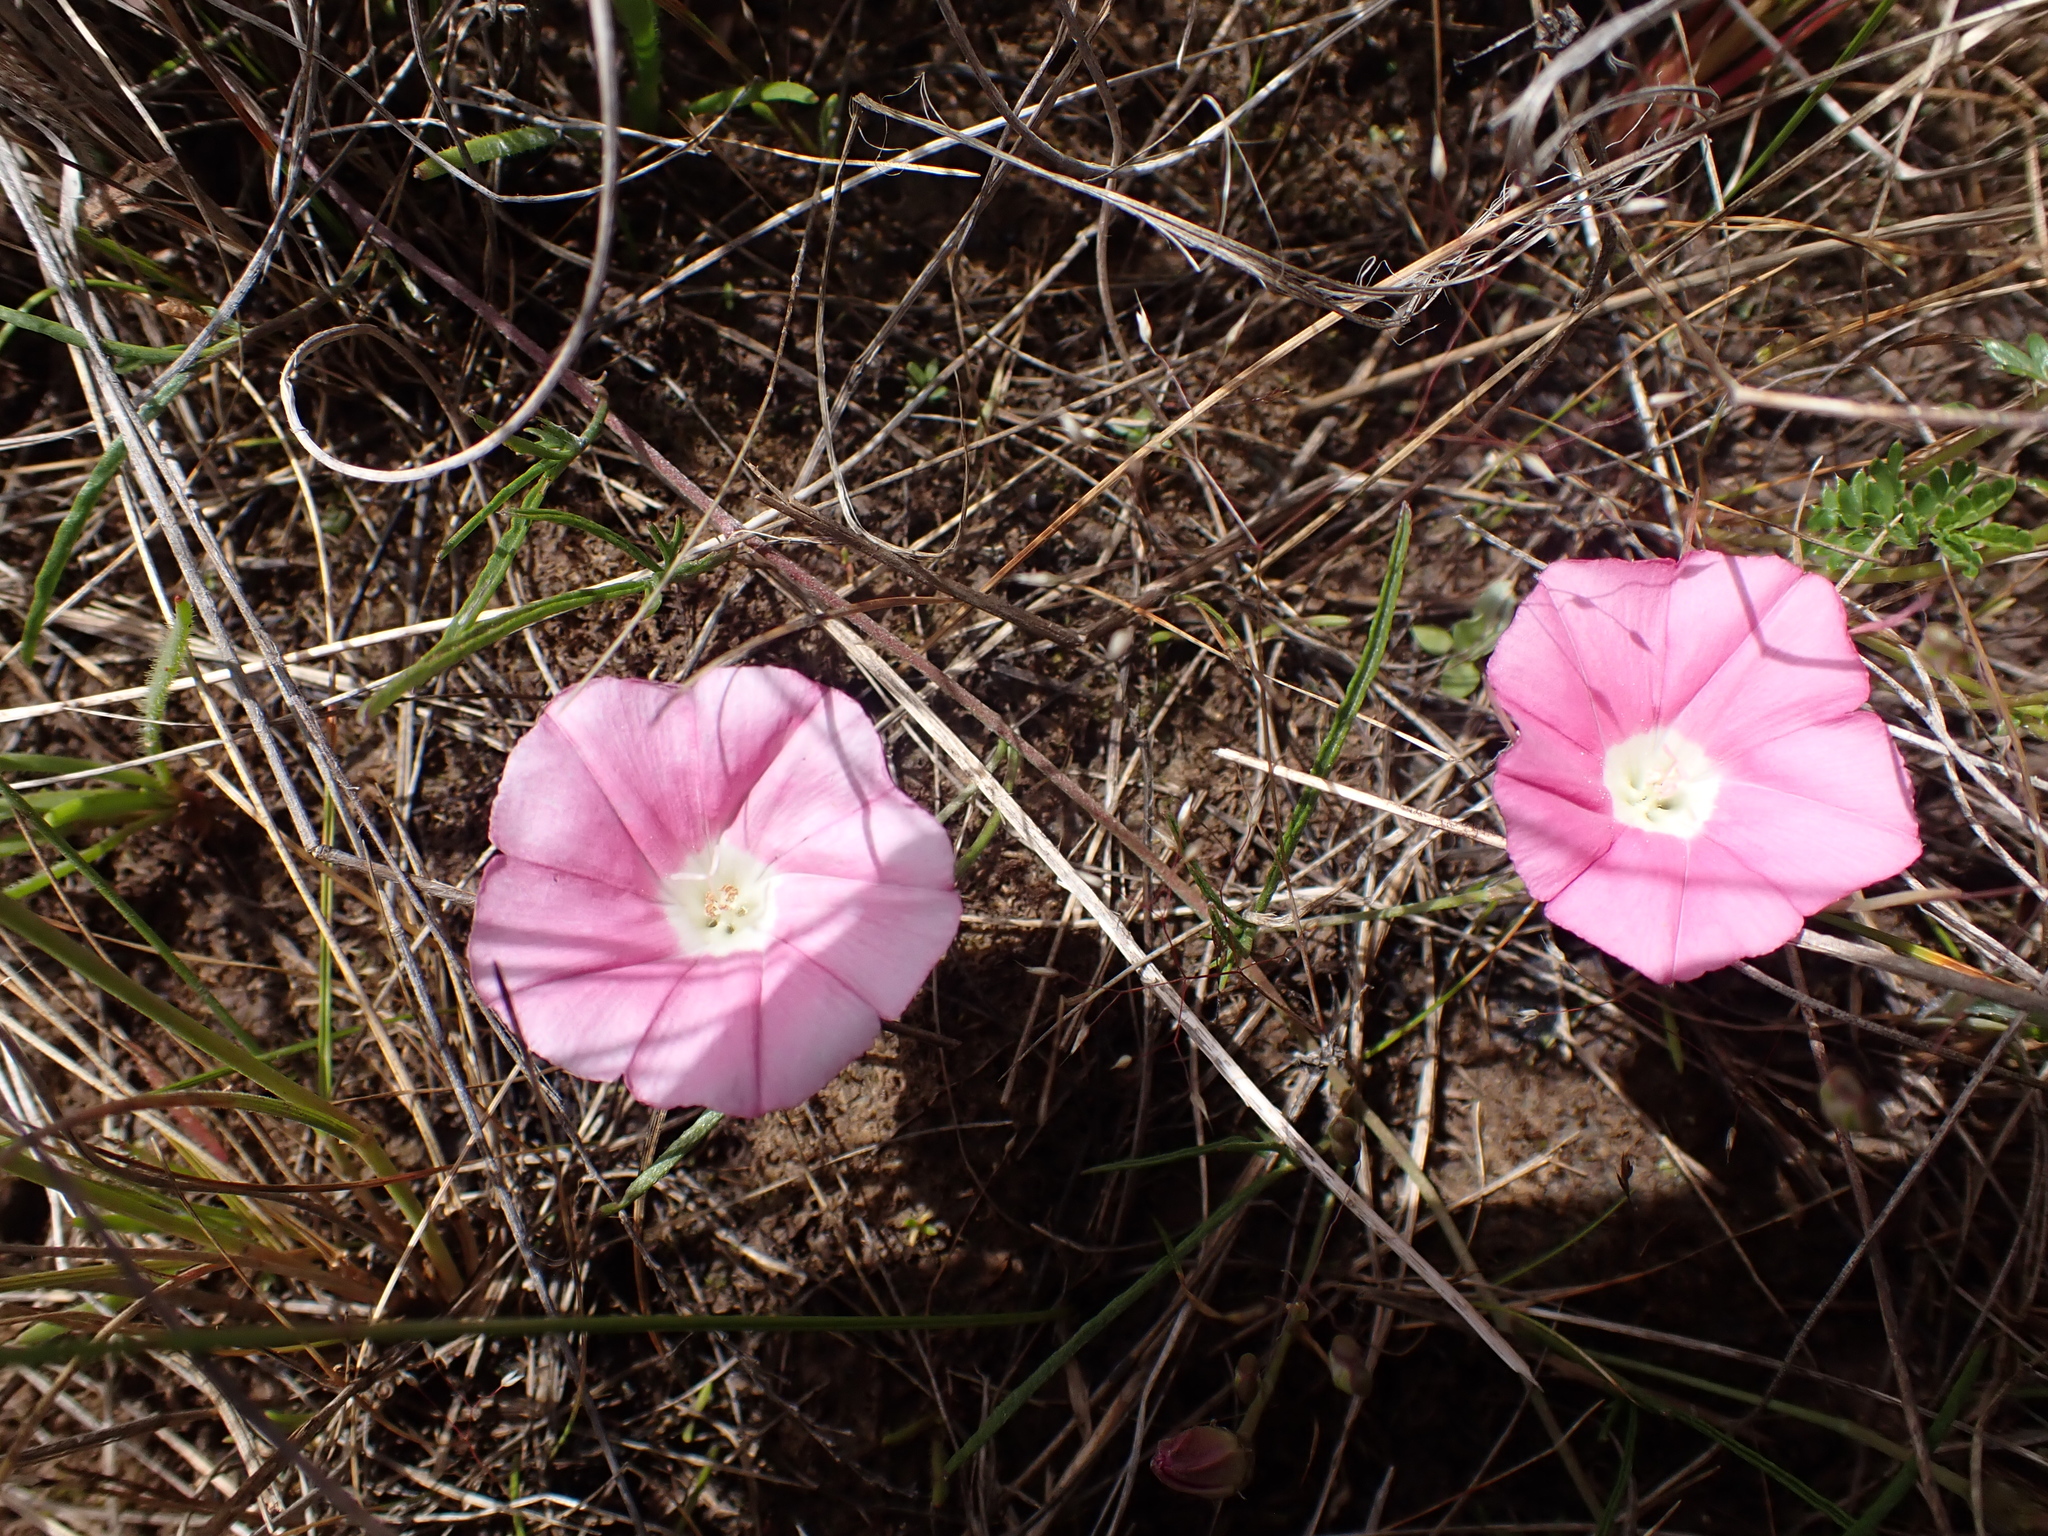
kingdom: Plantae
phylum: Tracheophyta
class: Magnoliopsida
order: Solanales
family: Convolvulaceae
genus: Convolvulus
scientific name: Convolvulus angustissimus
